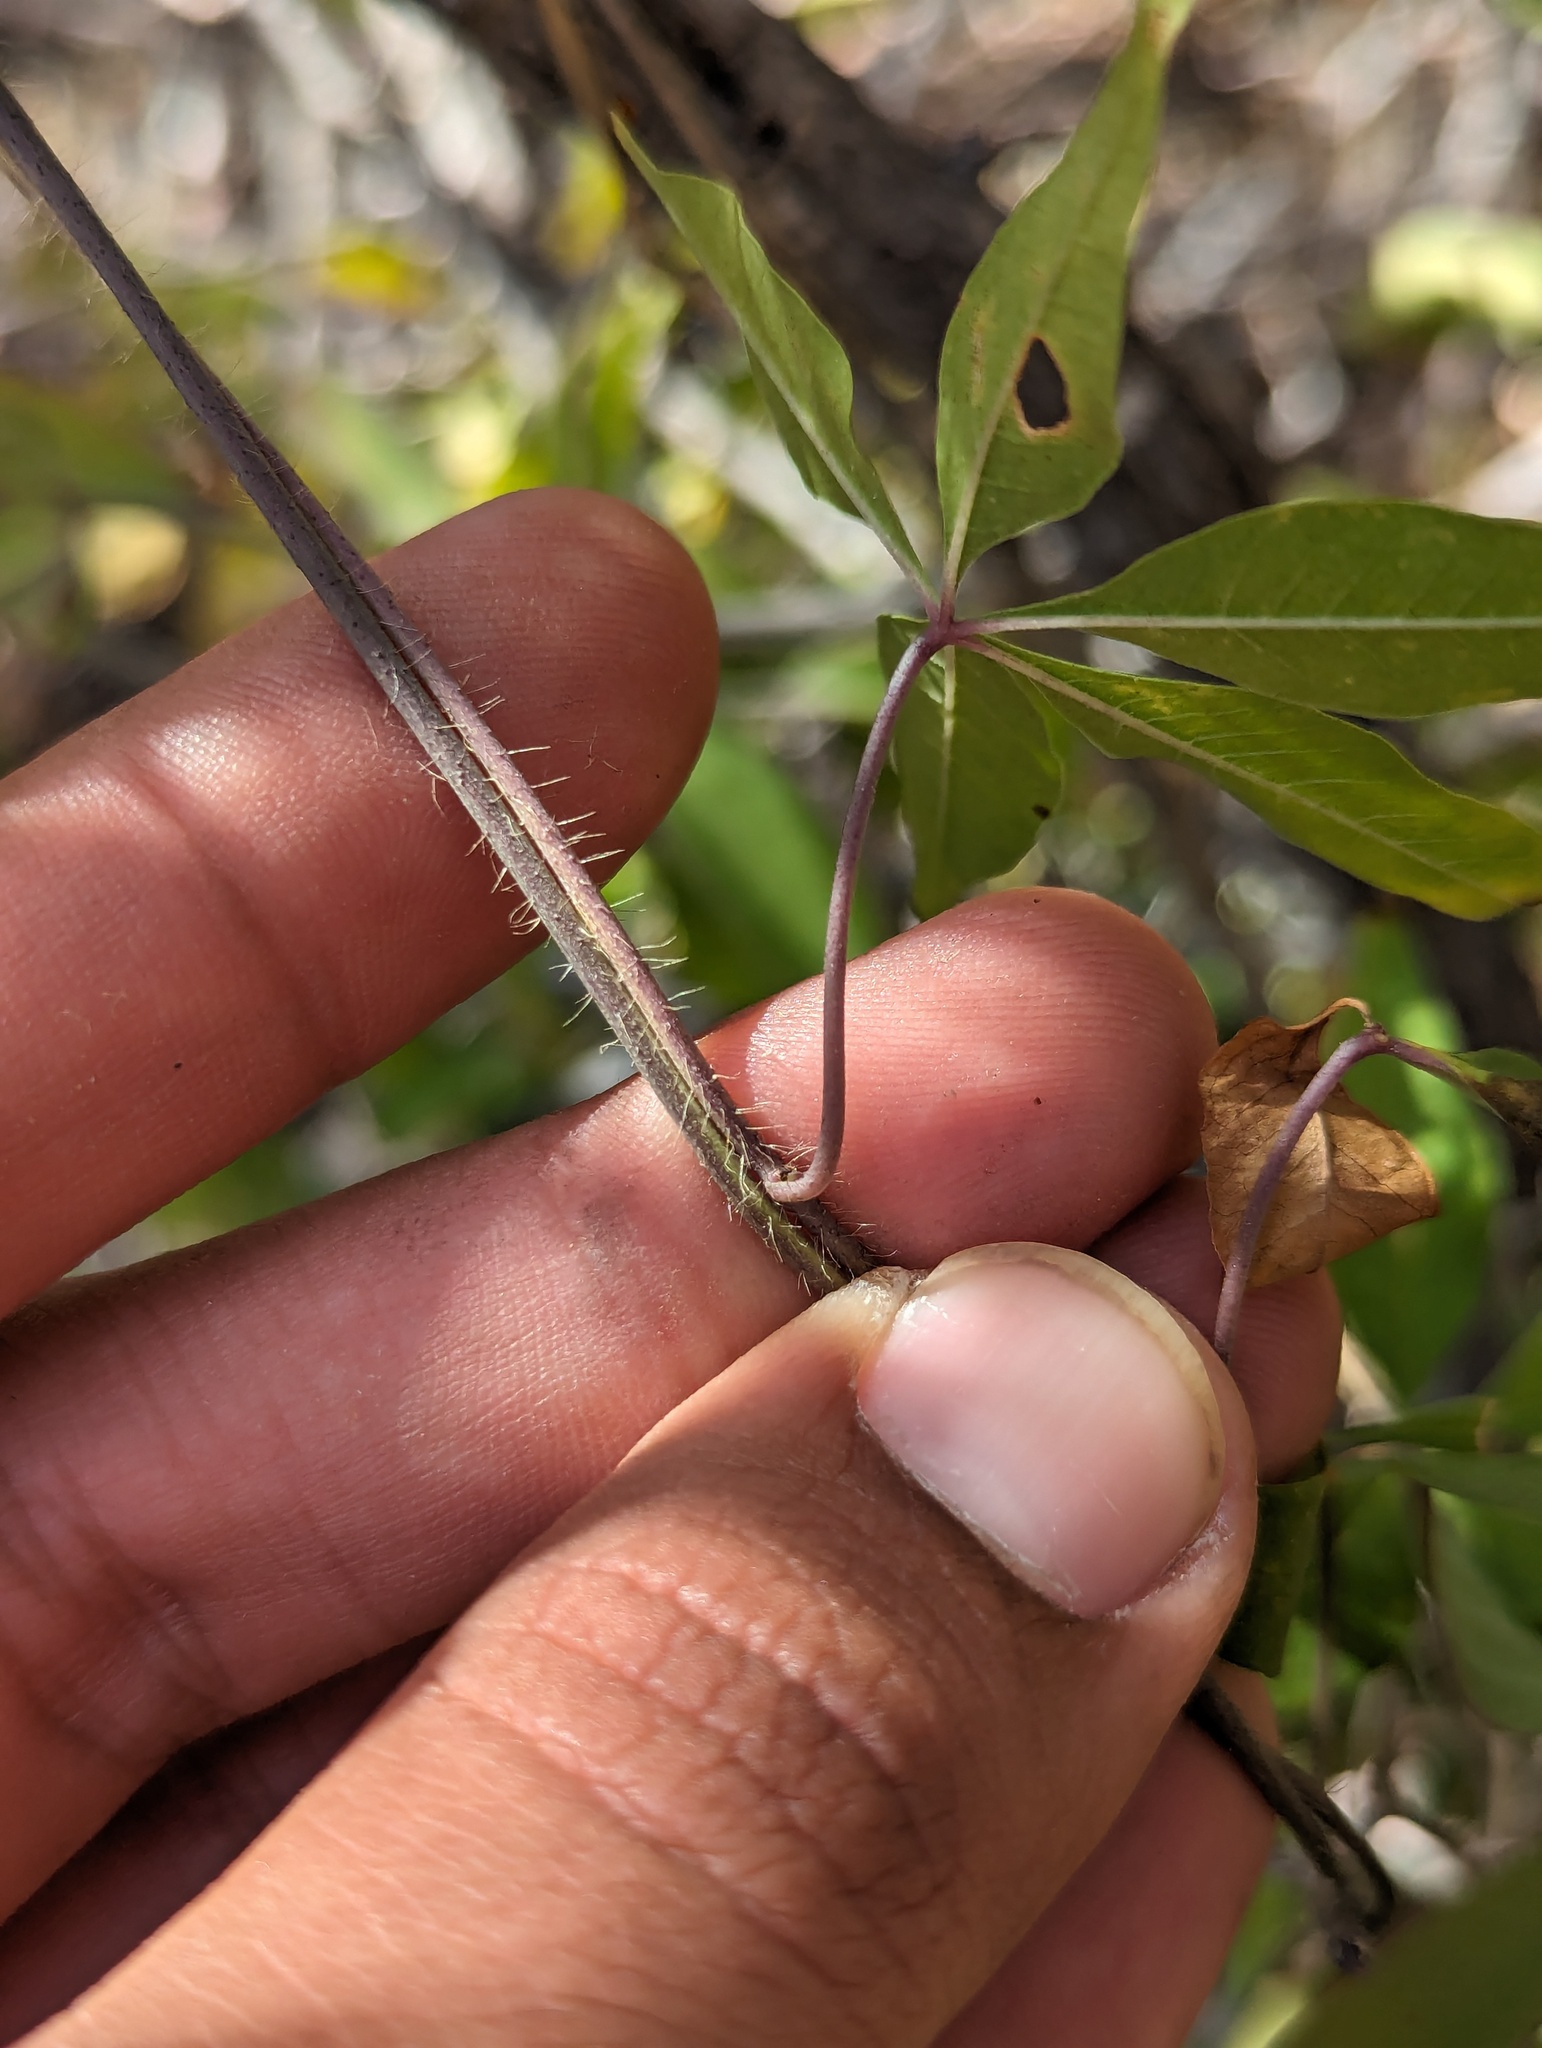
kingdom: Plantae
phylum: Tracheophyta
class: Magnoliopsida
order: Solanales
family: Convolvulaceae
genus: Distimake
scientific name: Distimake aureus
